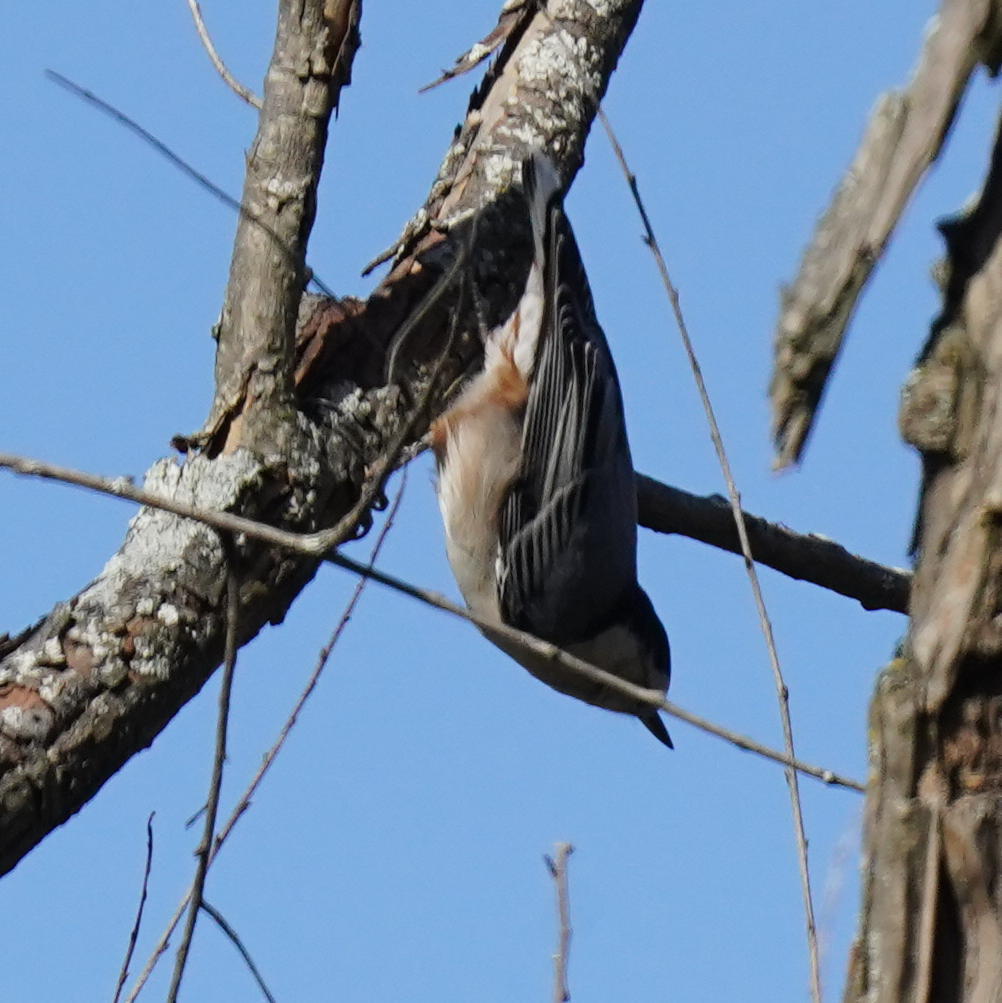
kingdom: Animalia
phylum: Chordata
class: Aves
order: Passeriformes
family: Sittidae
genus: Sitta
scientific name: Sitta carolinensis
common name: White-breasted nuthatch
